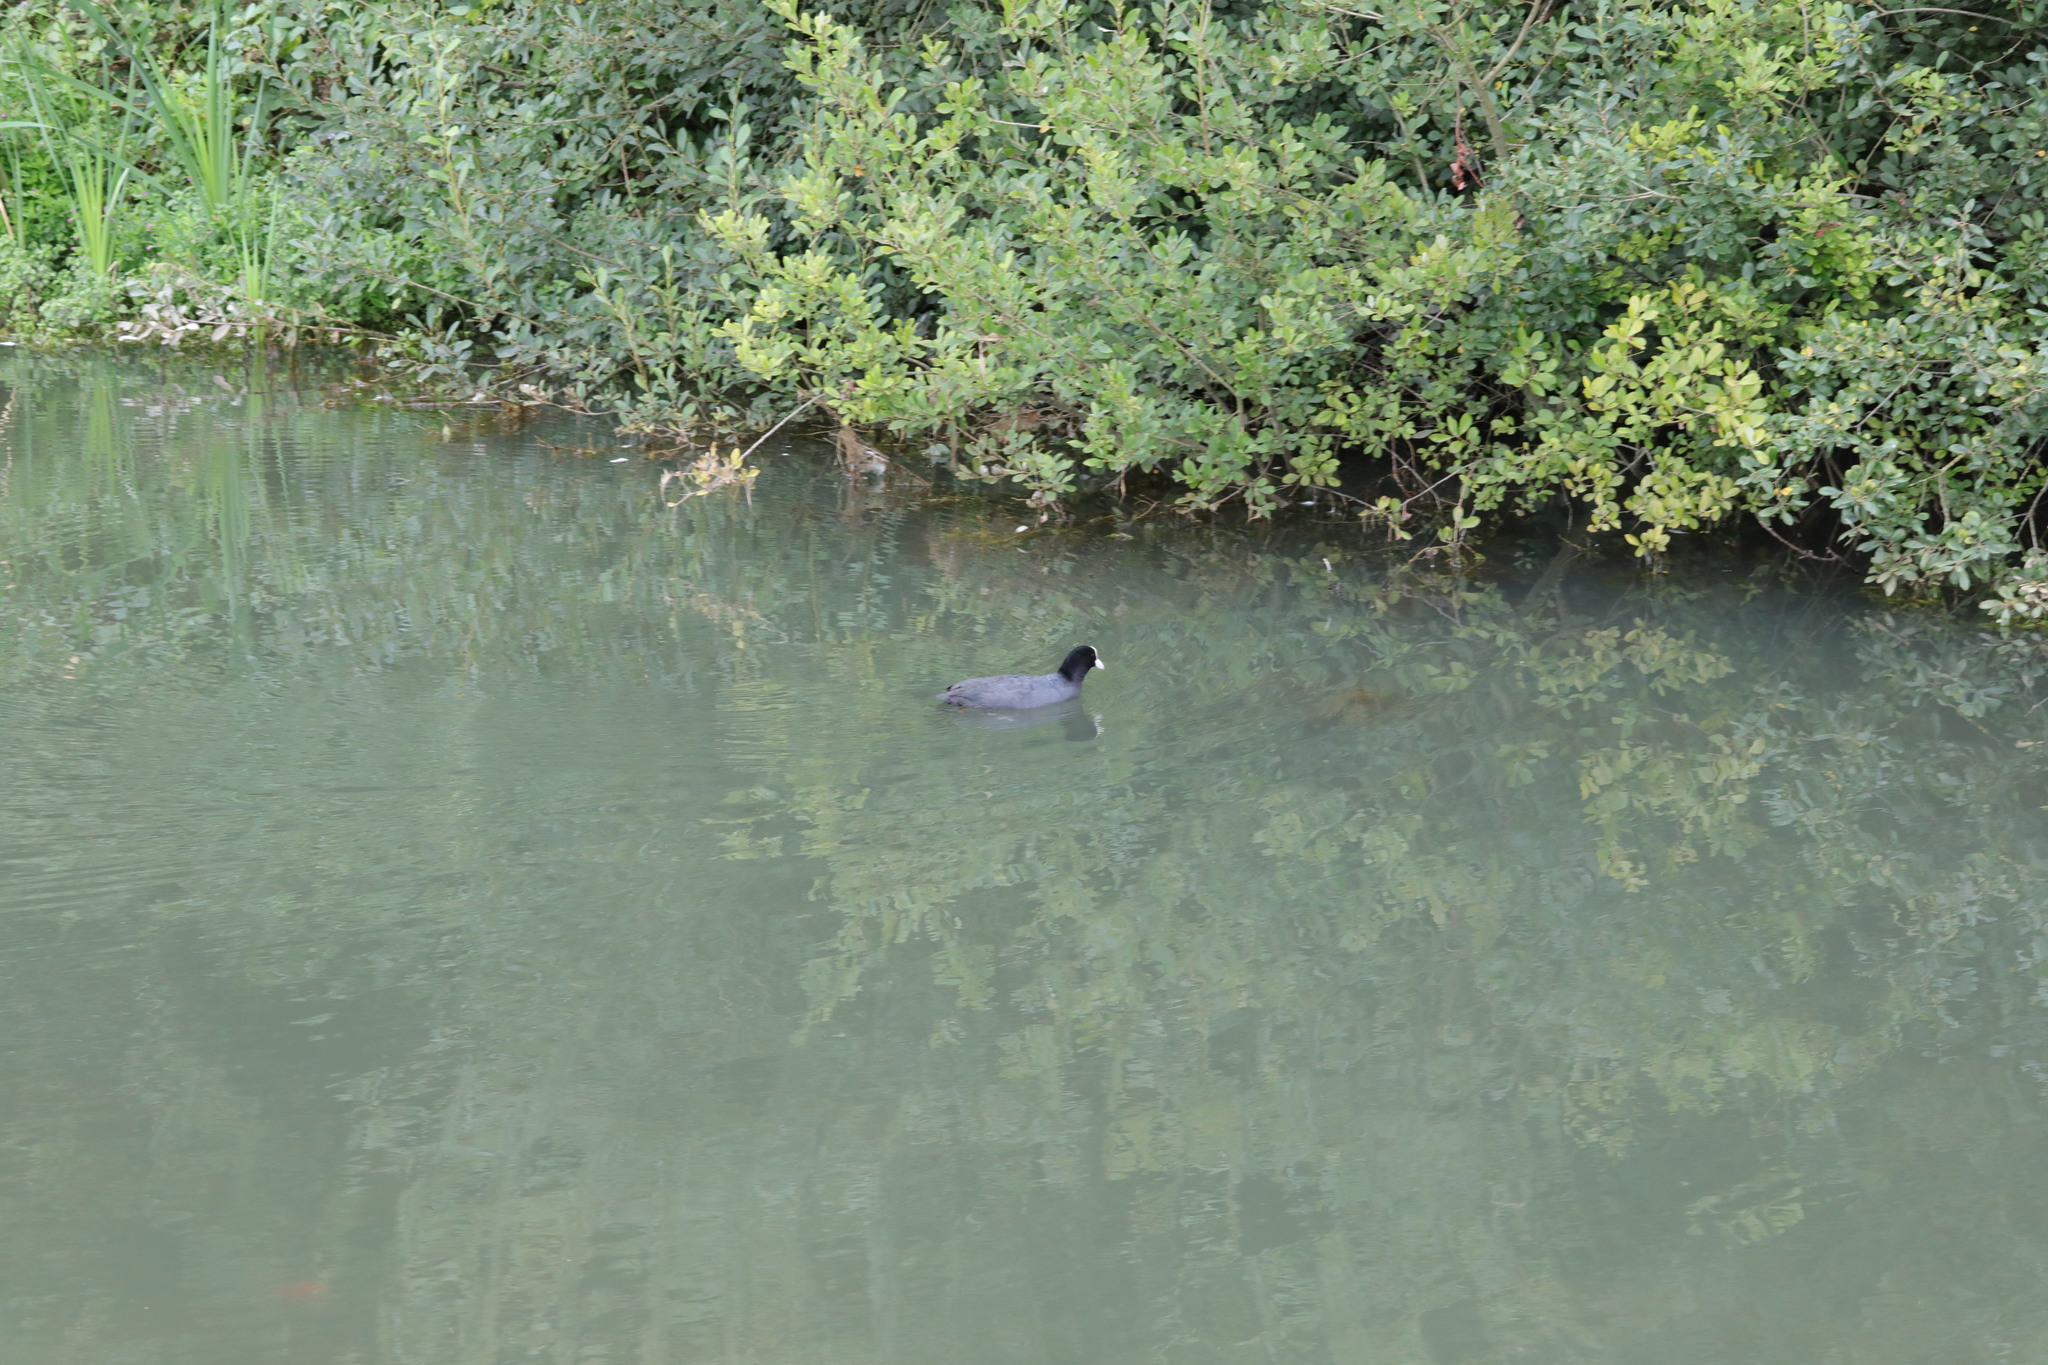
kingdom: Animalia
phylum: Chordata
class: Aves
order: Gruiformes
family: Rallidae
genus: Fulica
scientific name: Fulica atra
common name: Eurasian coot
